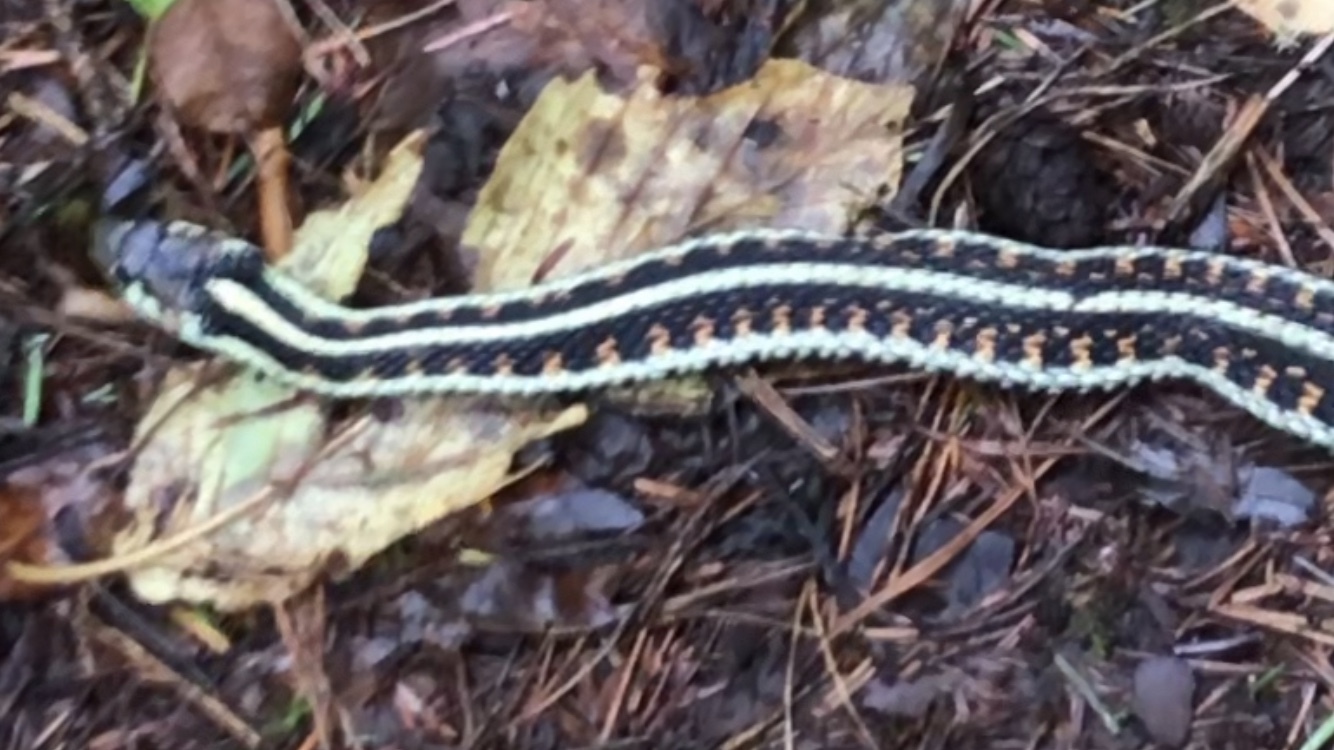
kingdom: Animalia
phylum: Chordata
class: Squamata
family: Colubridae
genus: Thamnophis
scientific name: Thamnophis sirtalis
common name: Common garter snake
